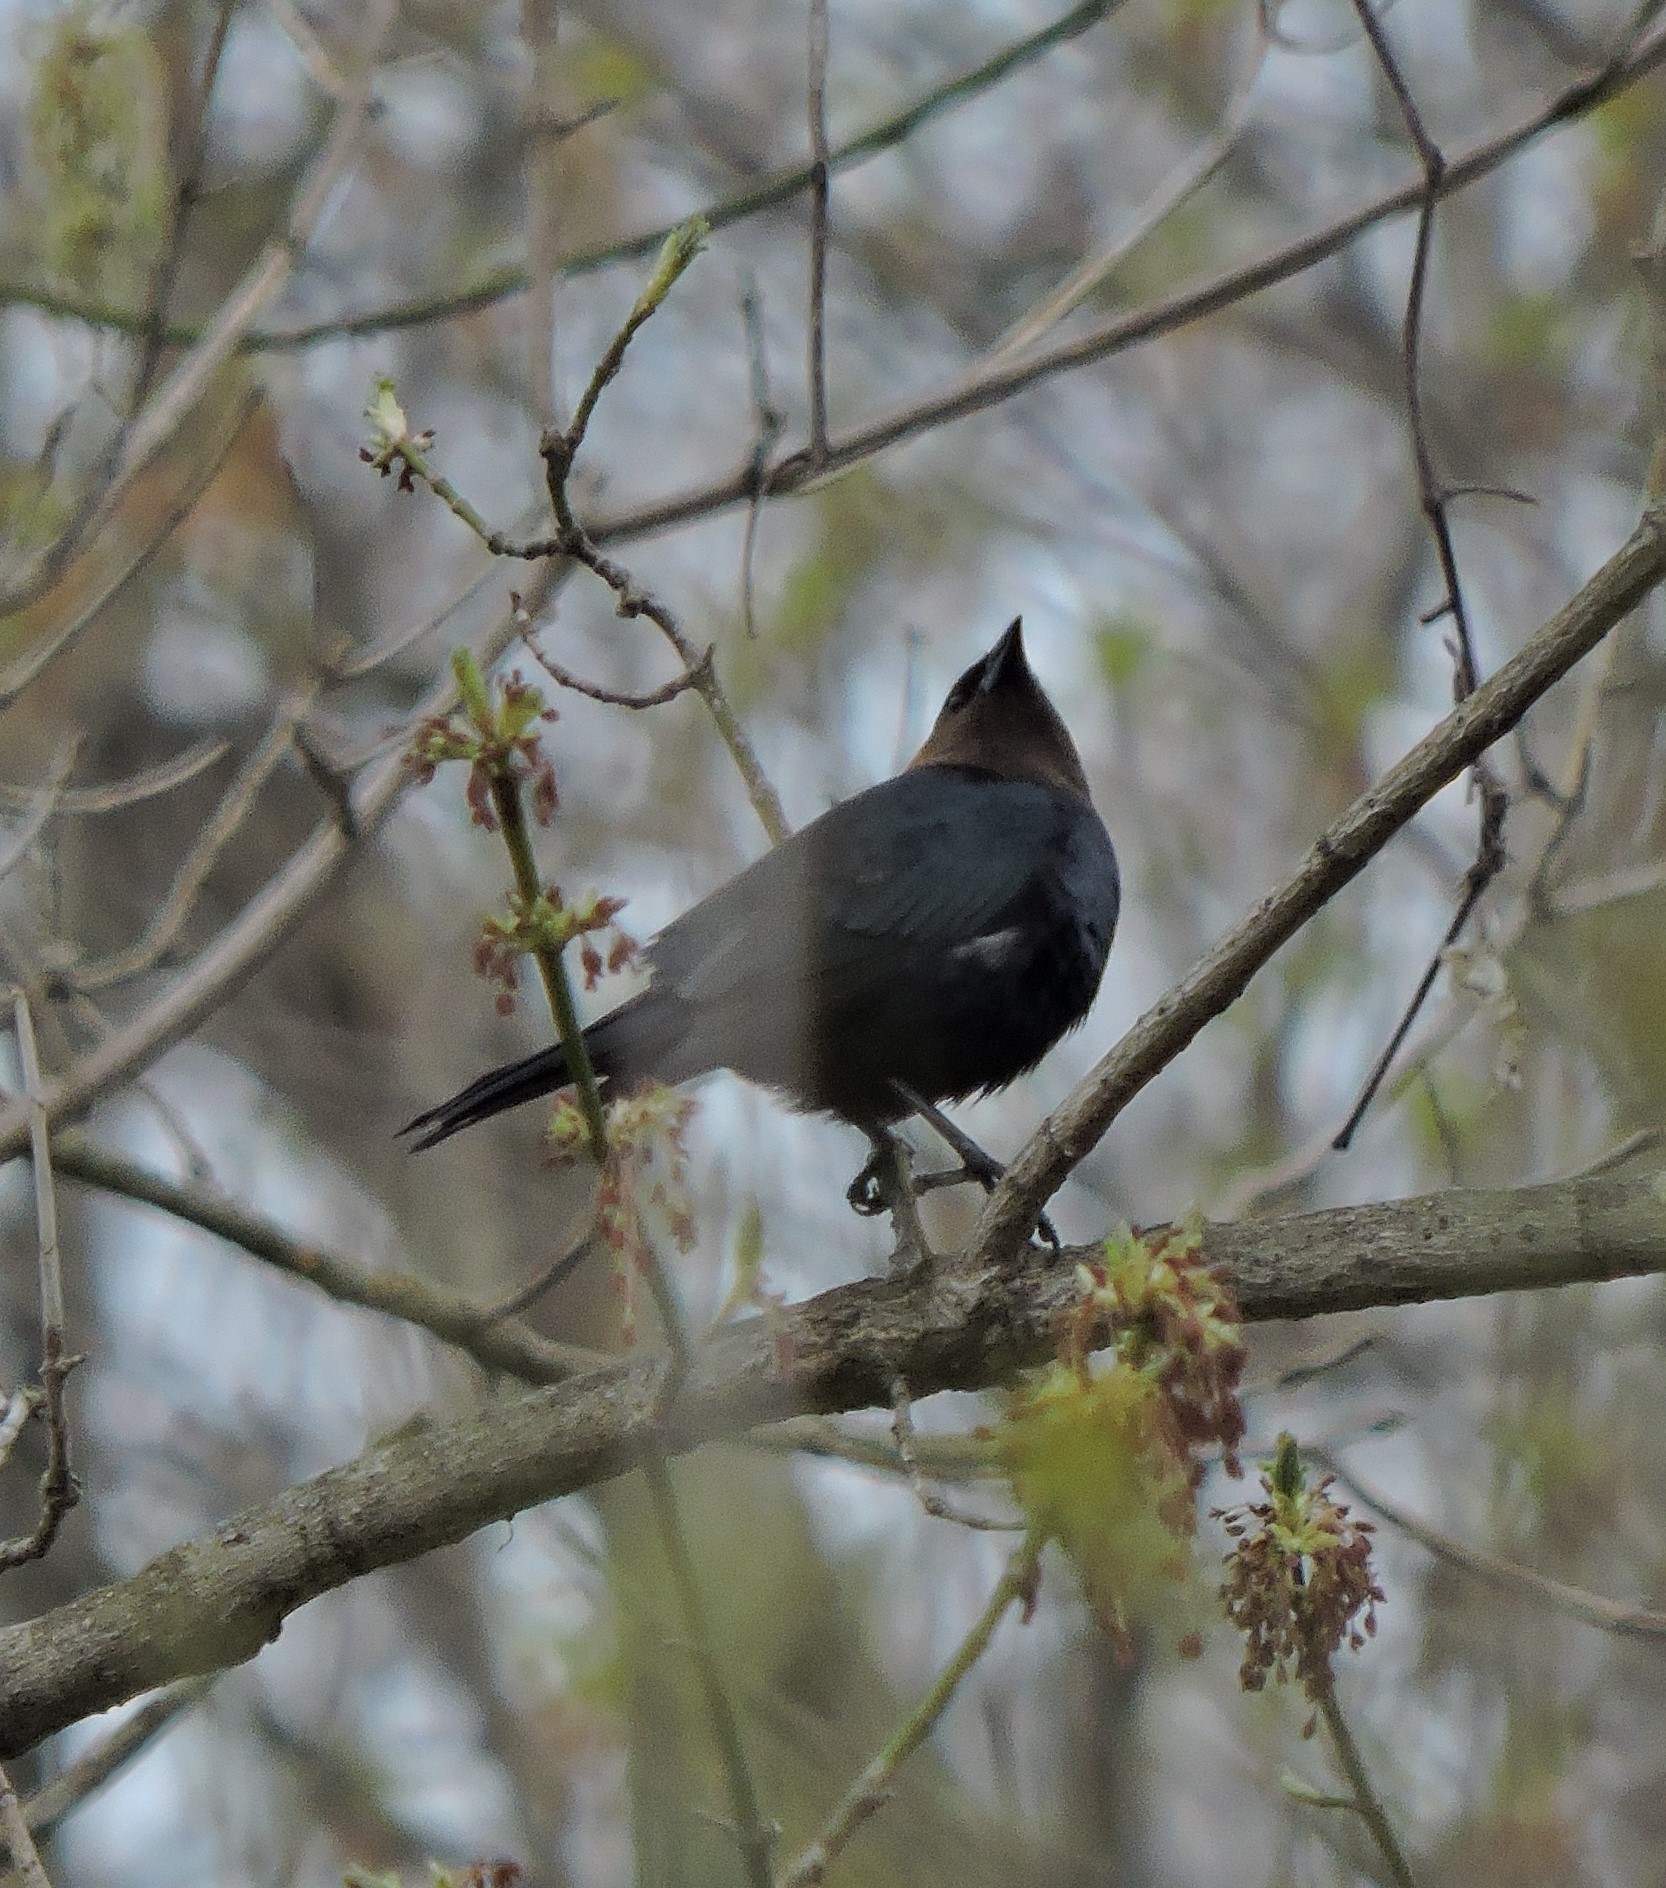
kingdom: Animalia
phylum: Chordata
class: Aves
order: Passeriformes
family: Icteridae
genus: Molothrus
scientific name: Molothrus ater
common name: Brown-headed cowbird
